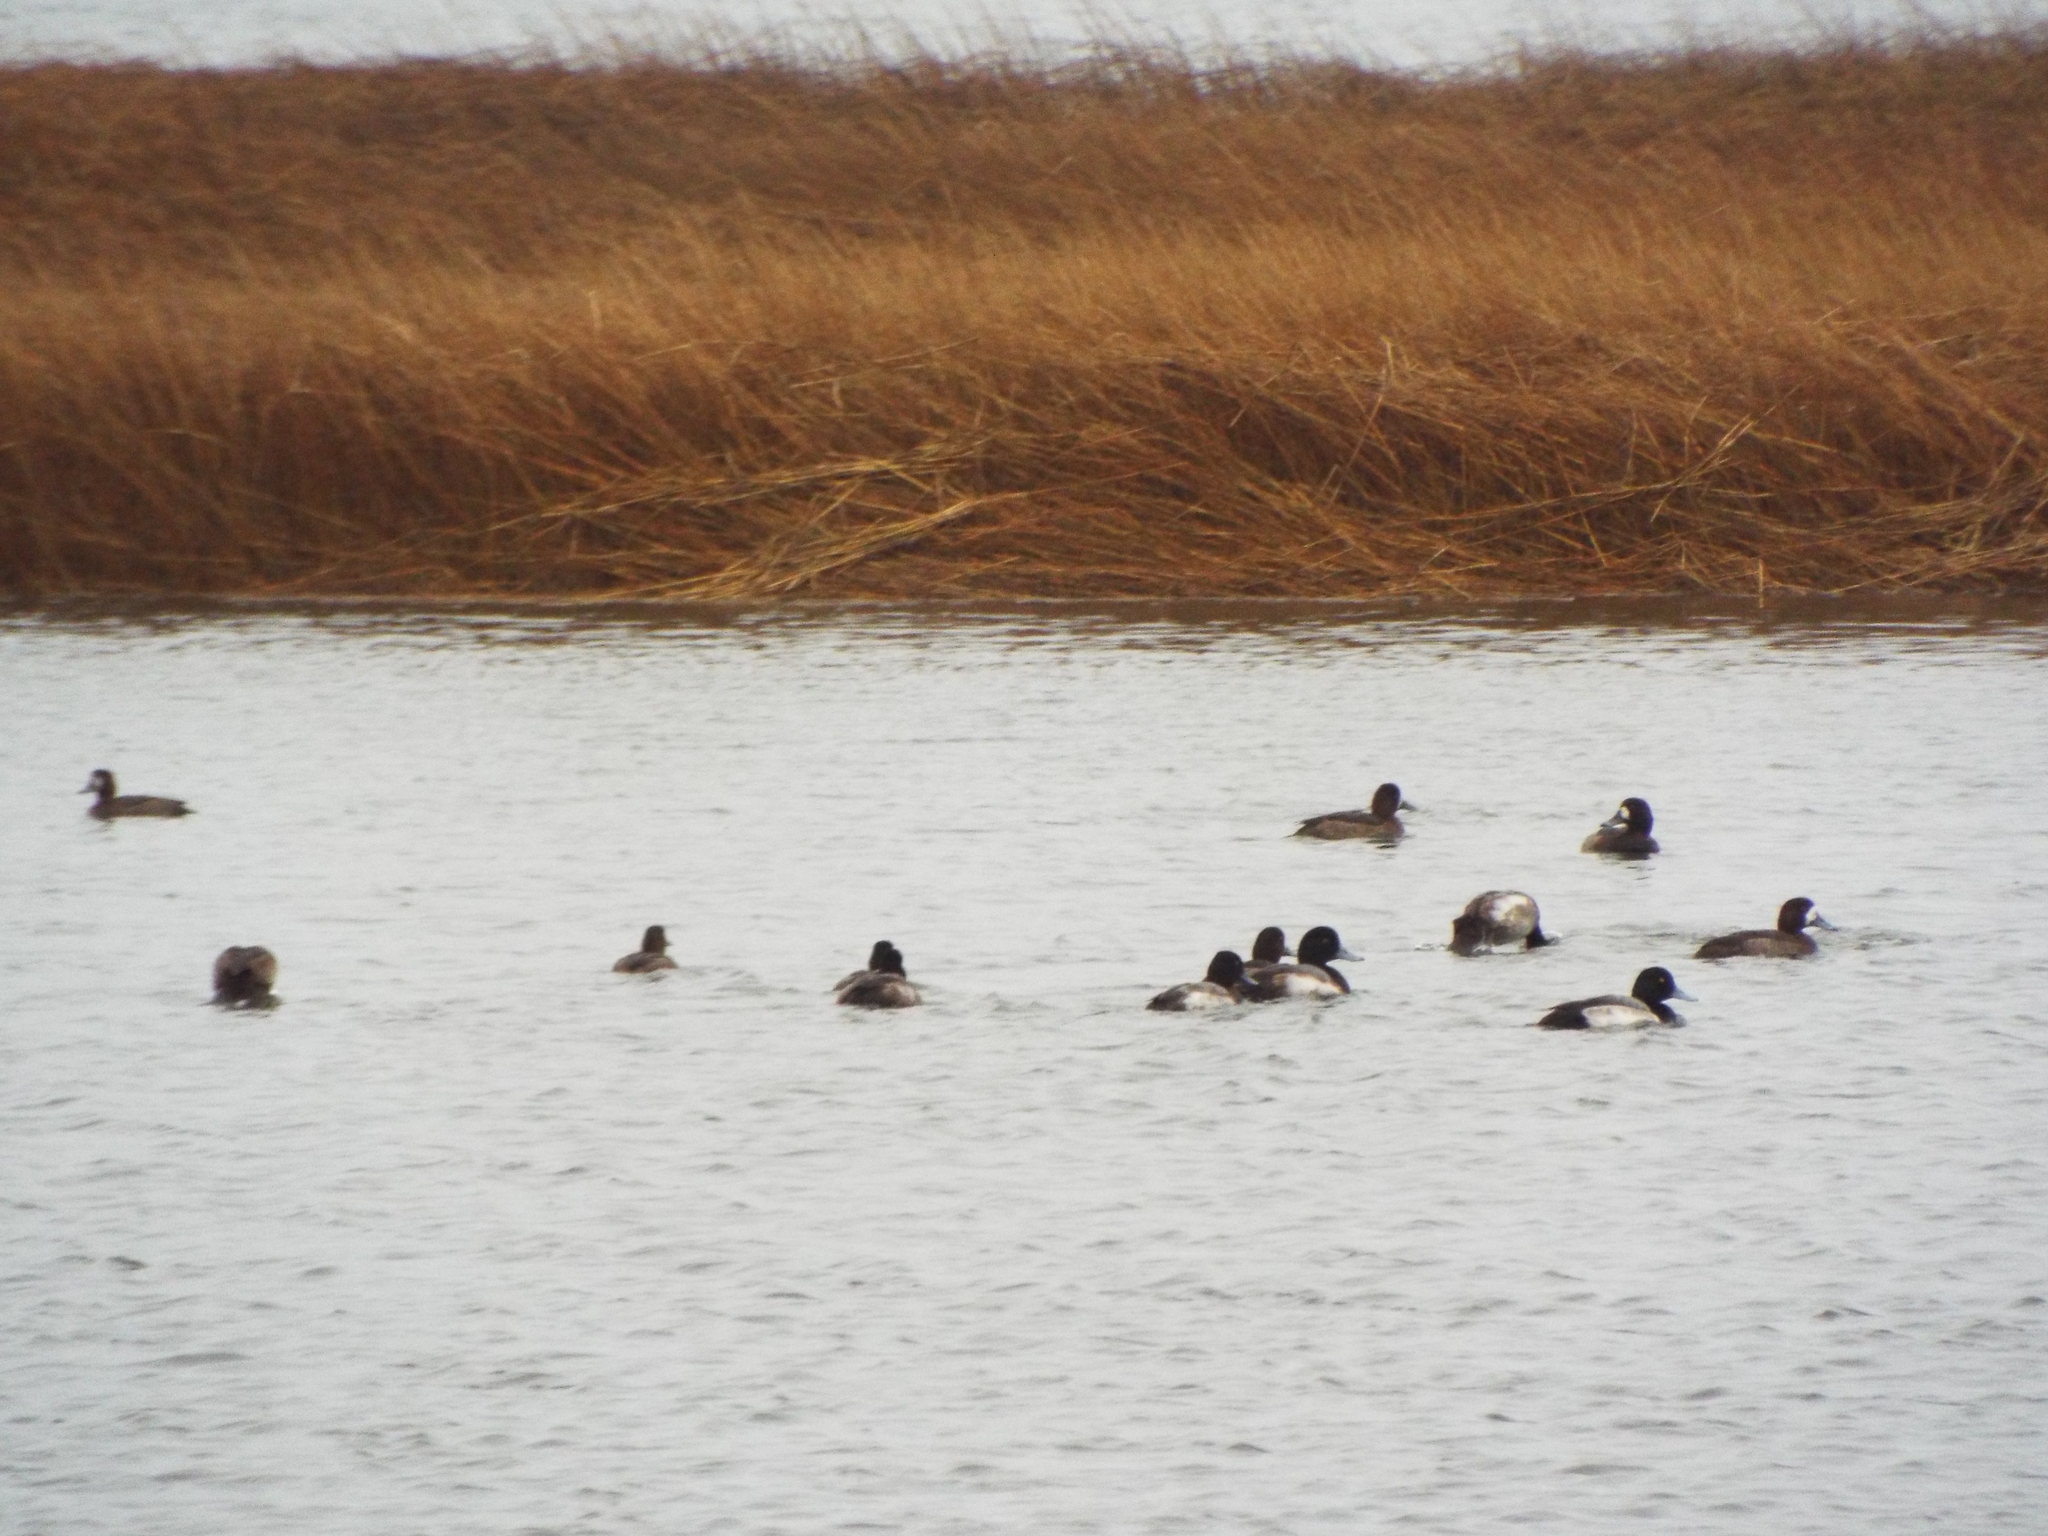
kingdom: Animalia
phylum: Chordata
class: Aves
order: Anseriformes
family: Anatidae
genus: Aythya
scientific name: Aythya marila
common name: Greater scaup
